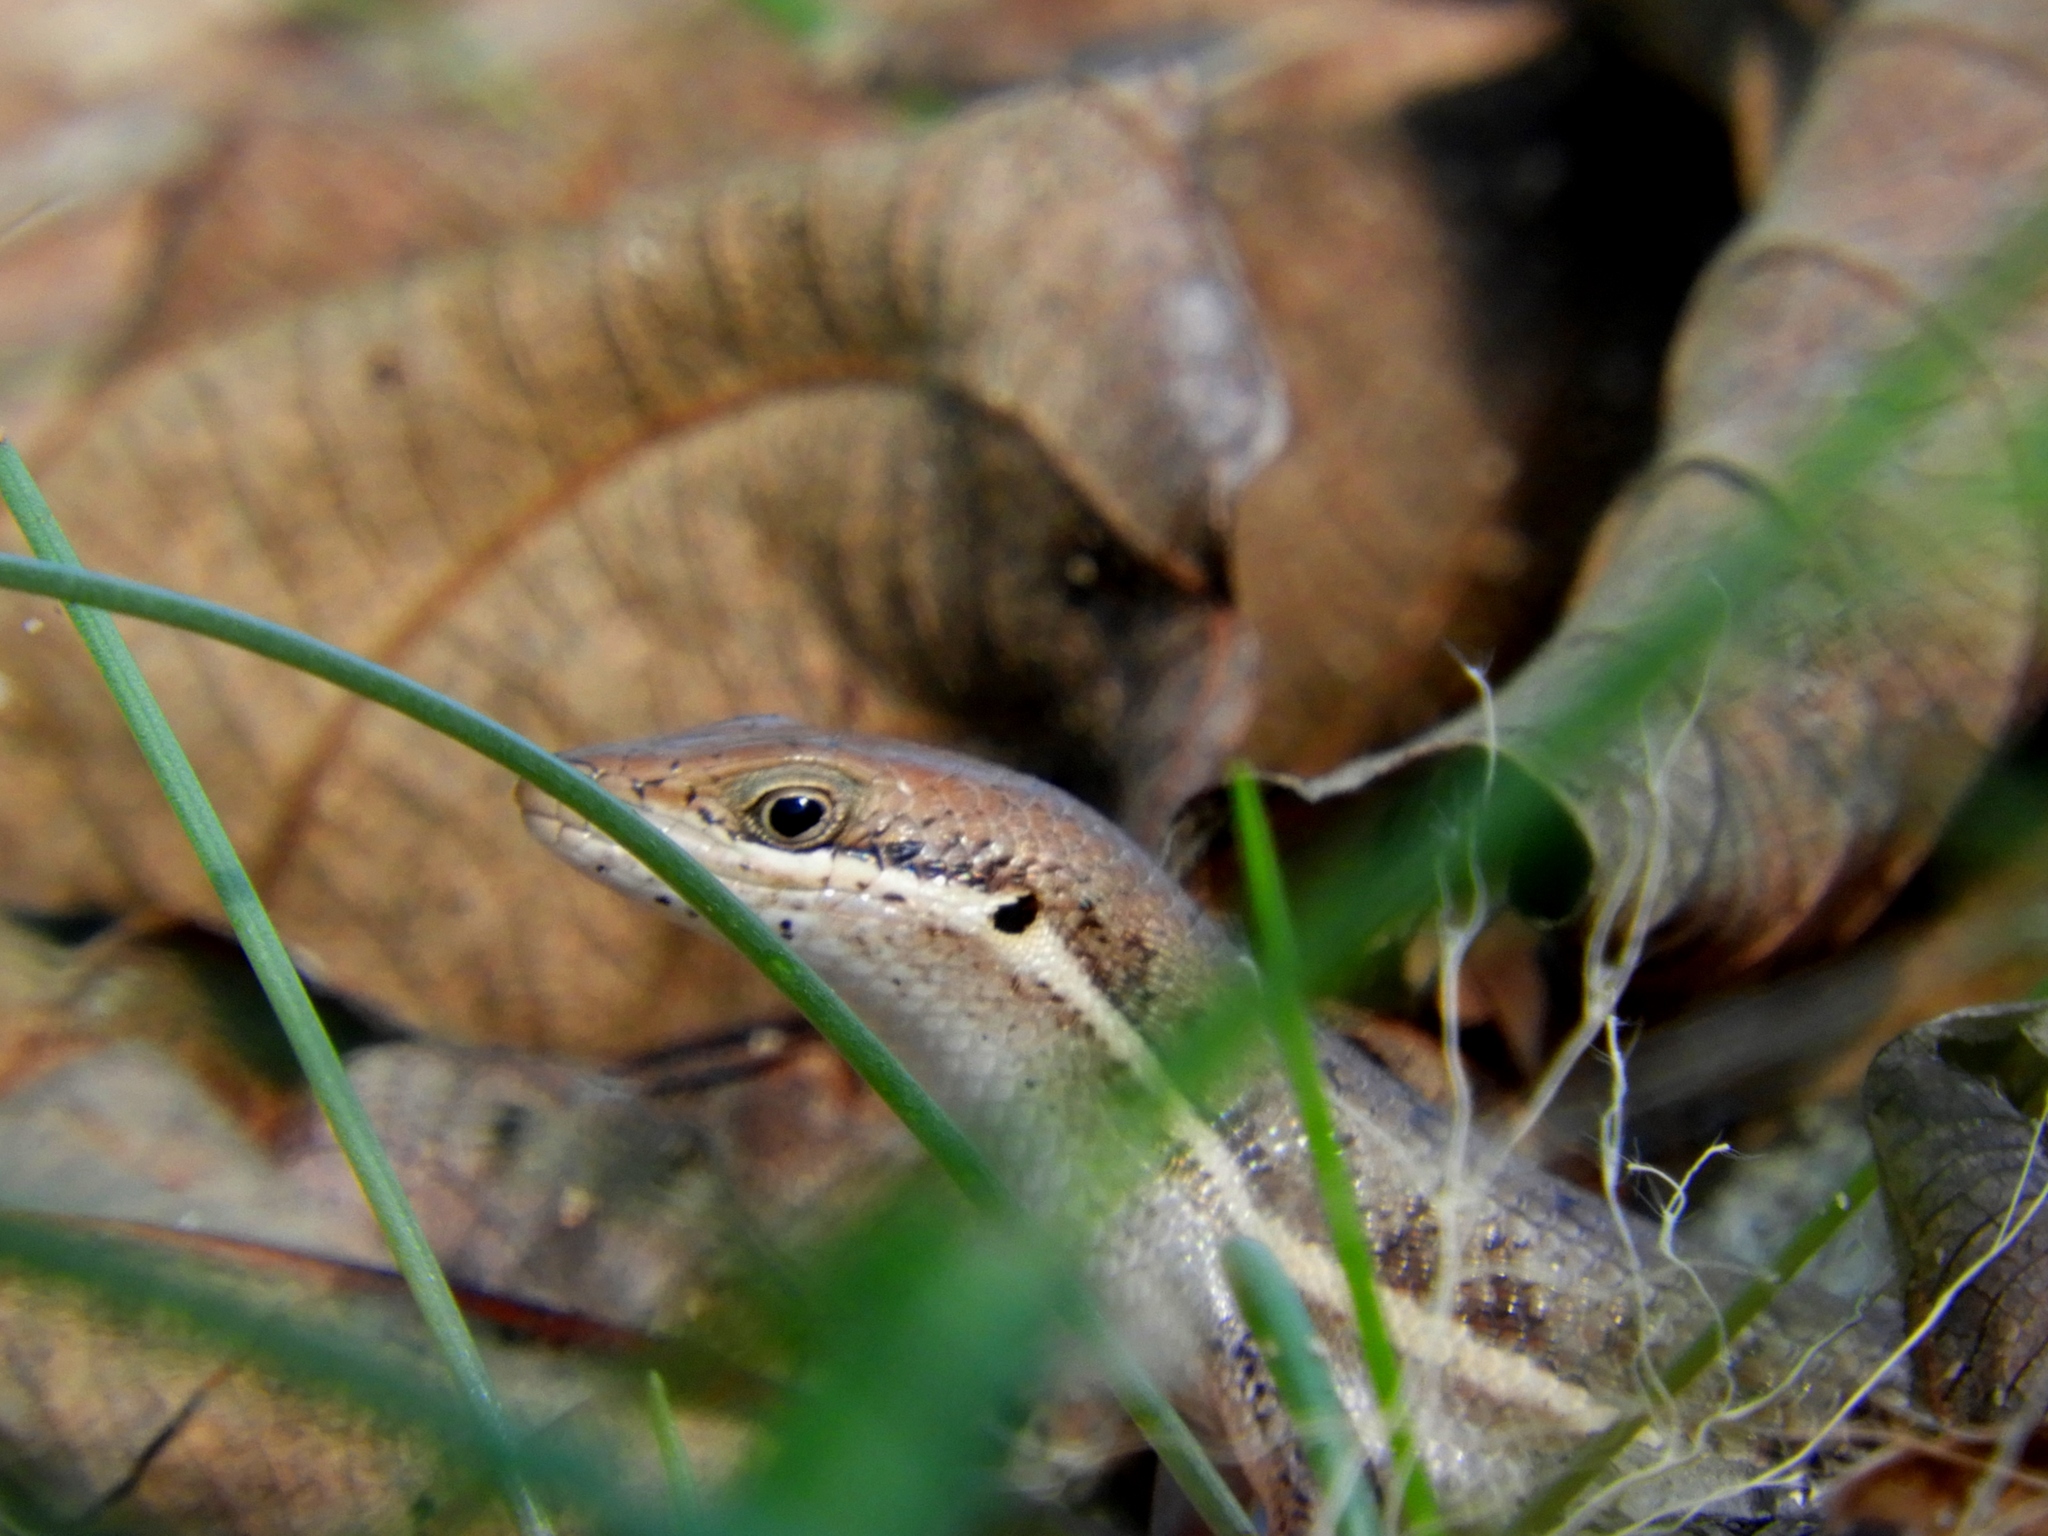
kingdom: Animalia
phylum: Chordata
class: Squamata
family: Scincidae
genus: Trachylepis
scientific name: Trachylepis varia
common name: Eastern variable skink
